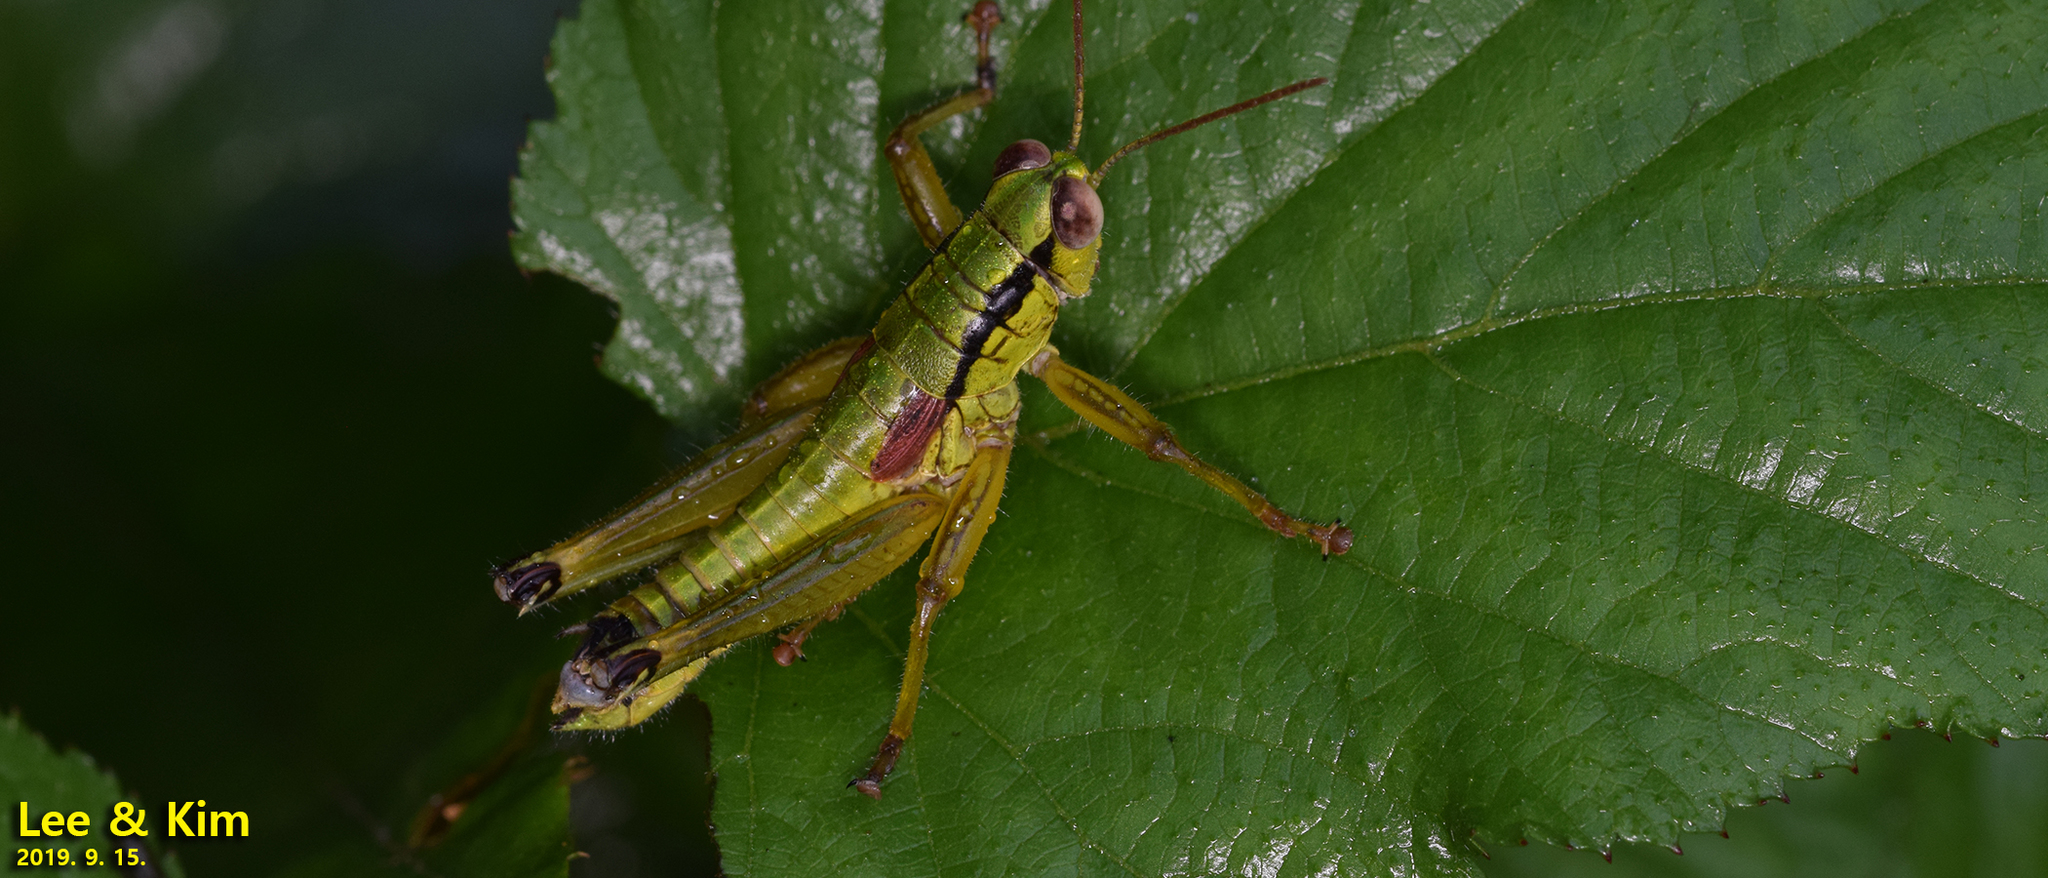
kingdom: Animalia
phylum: Arthropoda
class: Insecta
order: Orthoptera
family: Acrididae
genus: Anapodisma
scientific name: Anapodisma miramae
